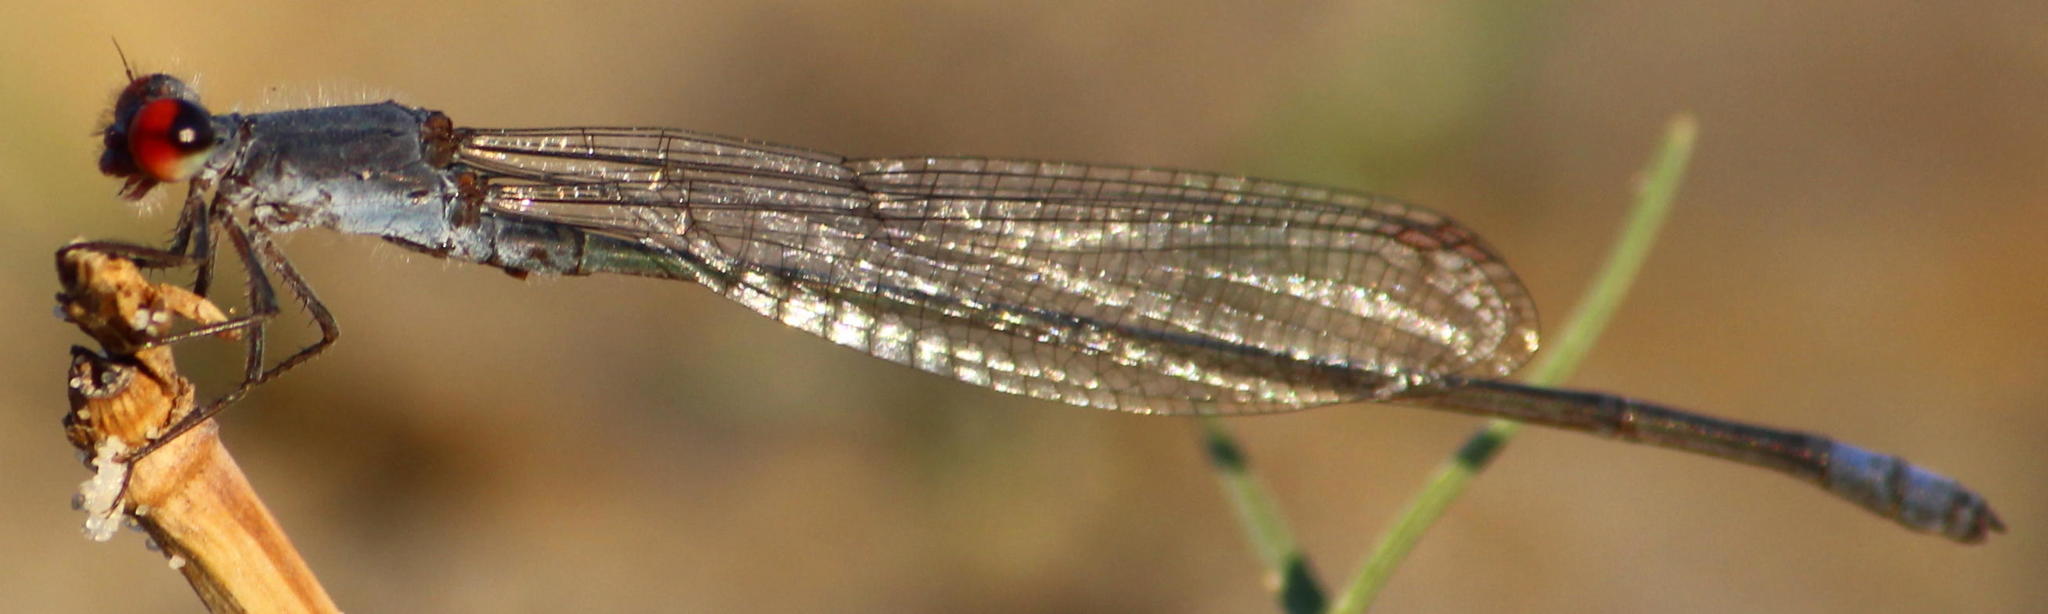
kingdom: Animalia
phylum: Arthropoda
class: Insecta
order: Odonata
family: Coenagrionidae
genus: Pseudagrion
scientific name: Pseudagrion sublacteum
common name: Cherry-eye sprite
